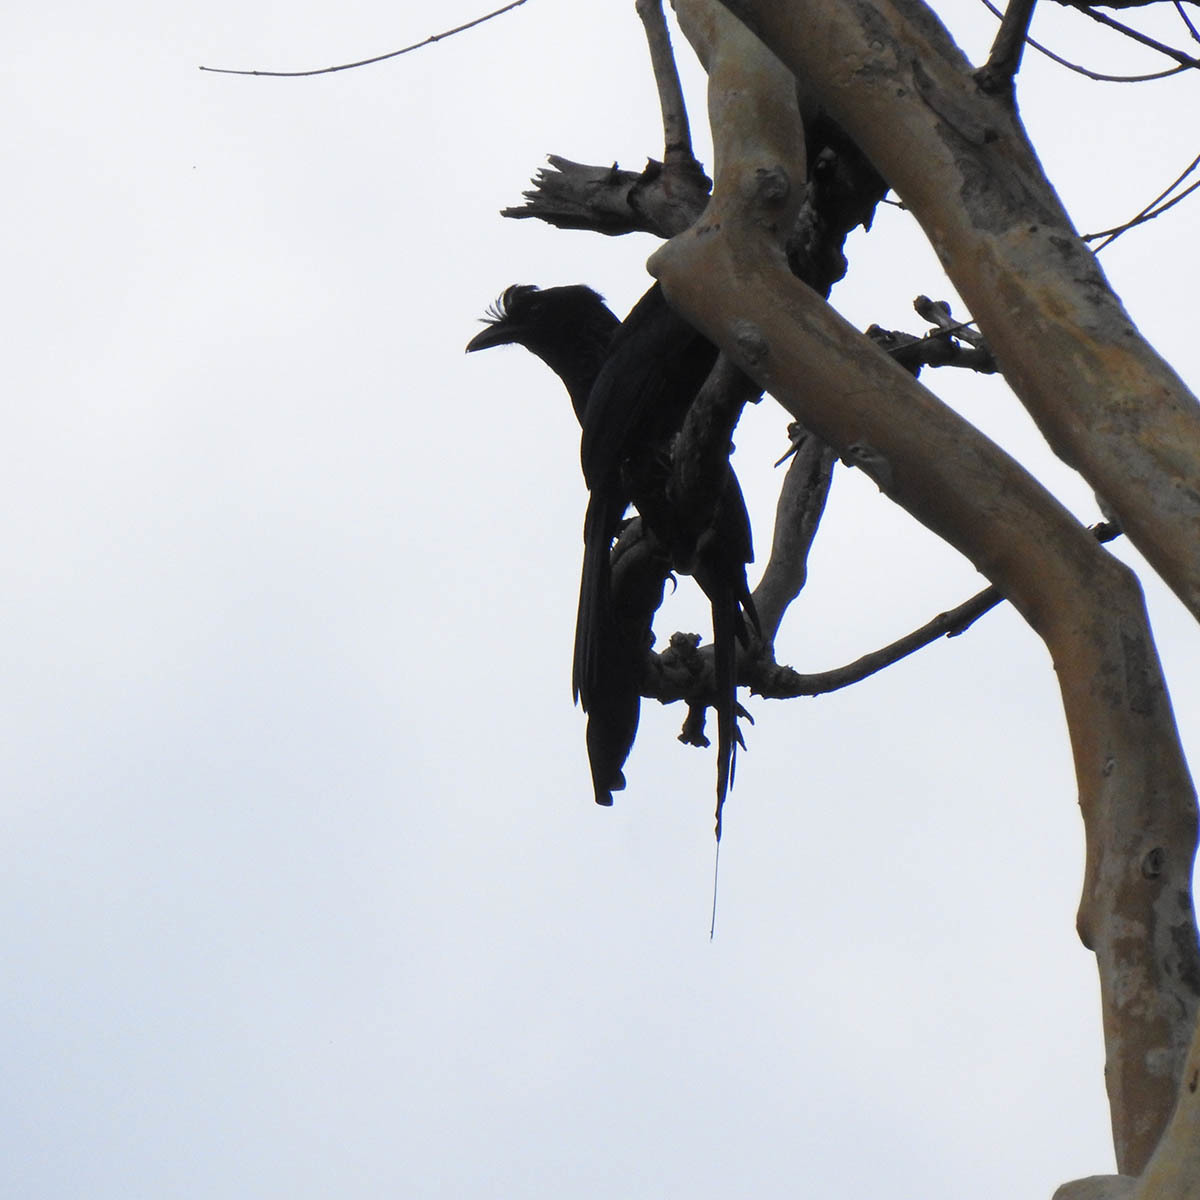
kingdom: Animalia
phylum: Chordata
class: Aves
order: Passeriformes
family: Dicruridae
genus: Dicrurus
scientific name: Dicrurus paradiseus
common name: Greater racket-tailed drongo
